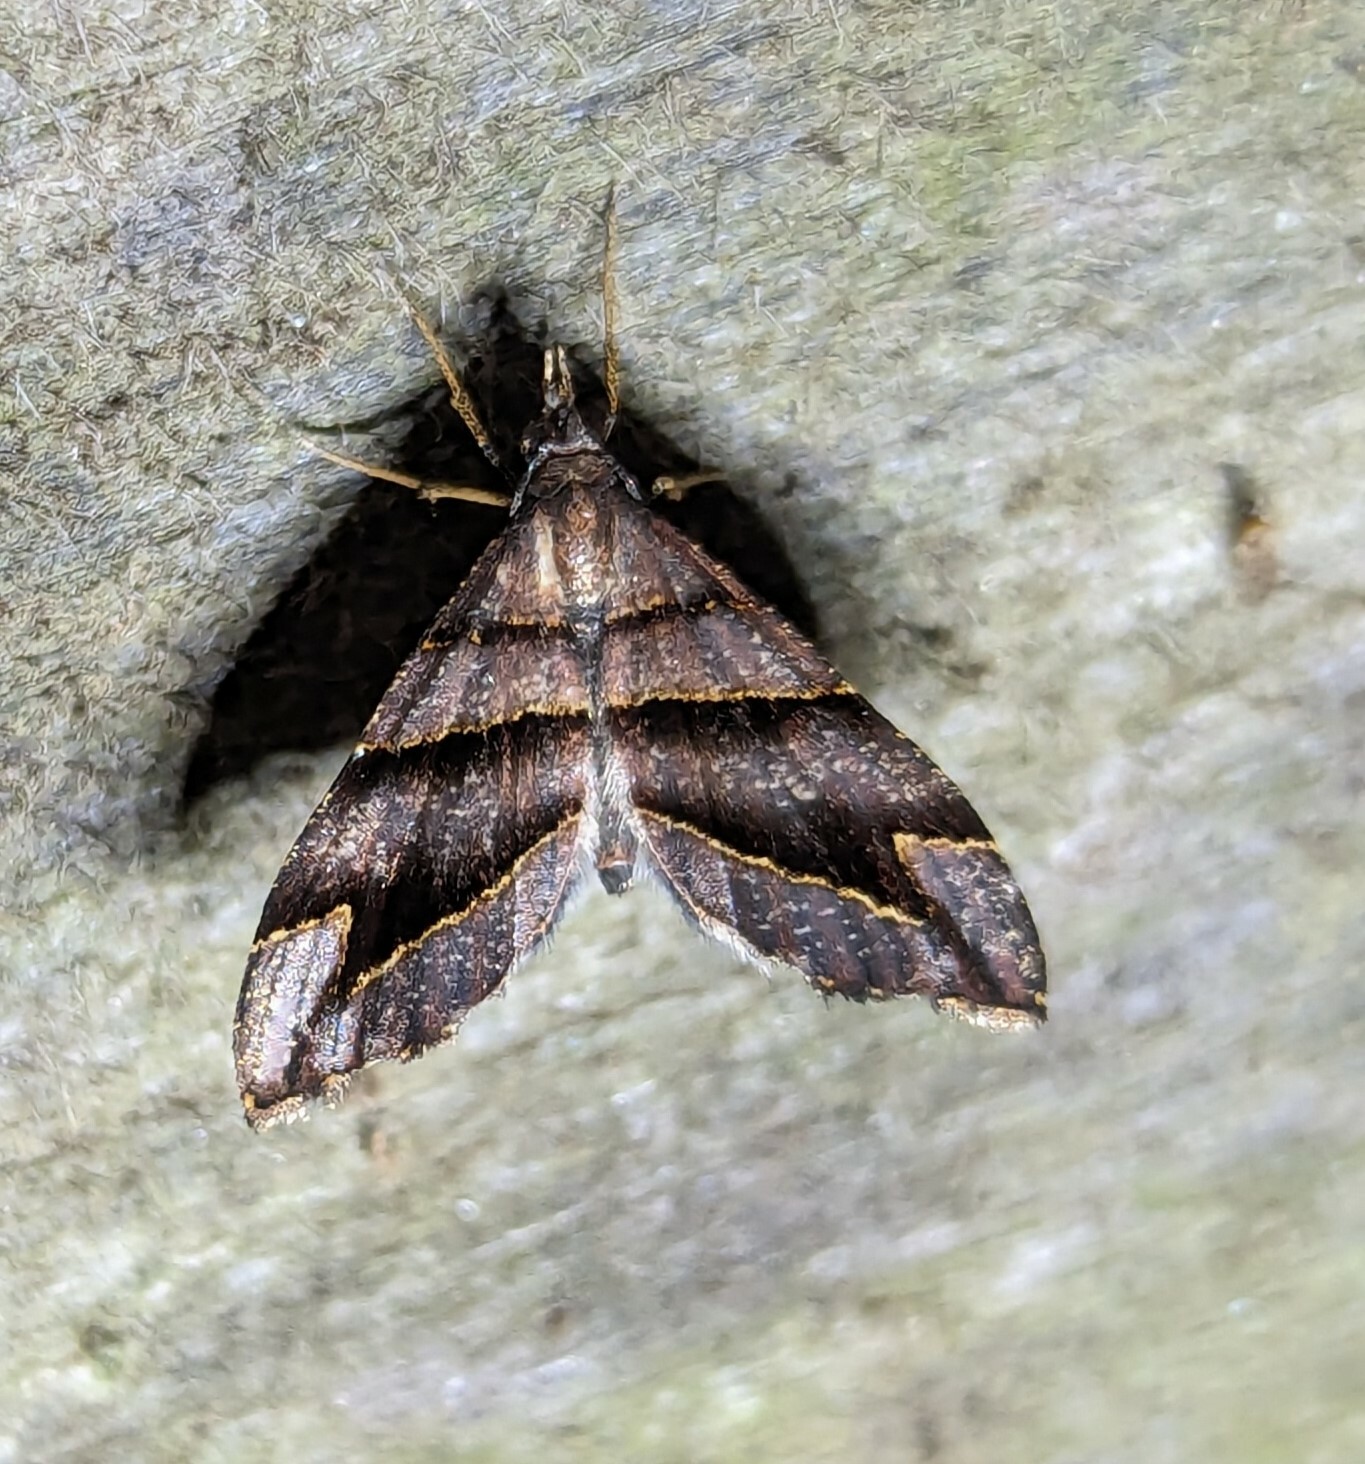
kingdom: Animalia
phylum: Arthropoda
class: Insecta
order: Lepidoptera
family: Geometridae
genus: Psaliodes
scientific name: Psaliodes cronia
